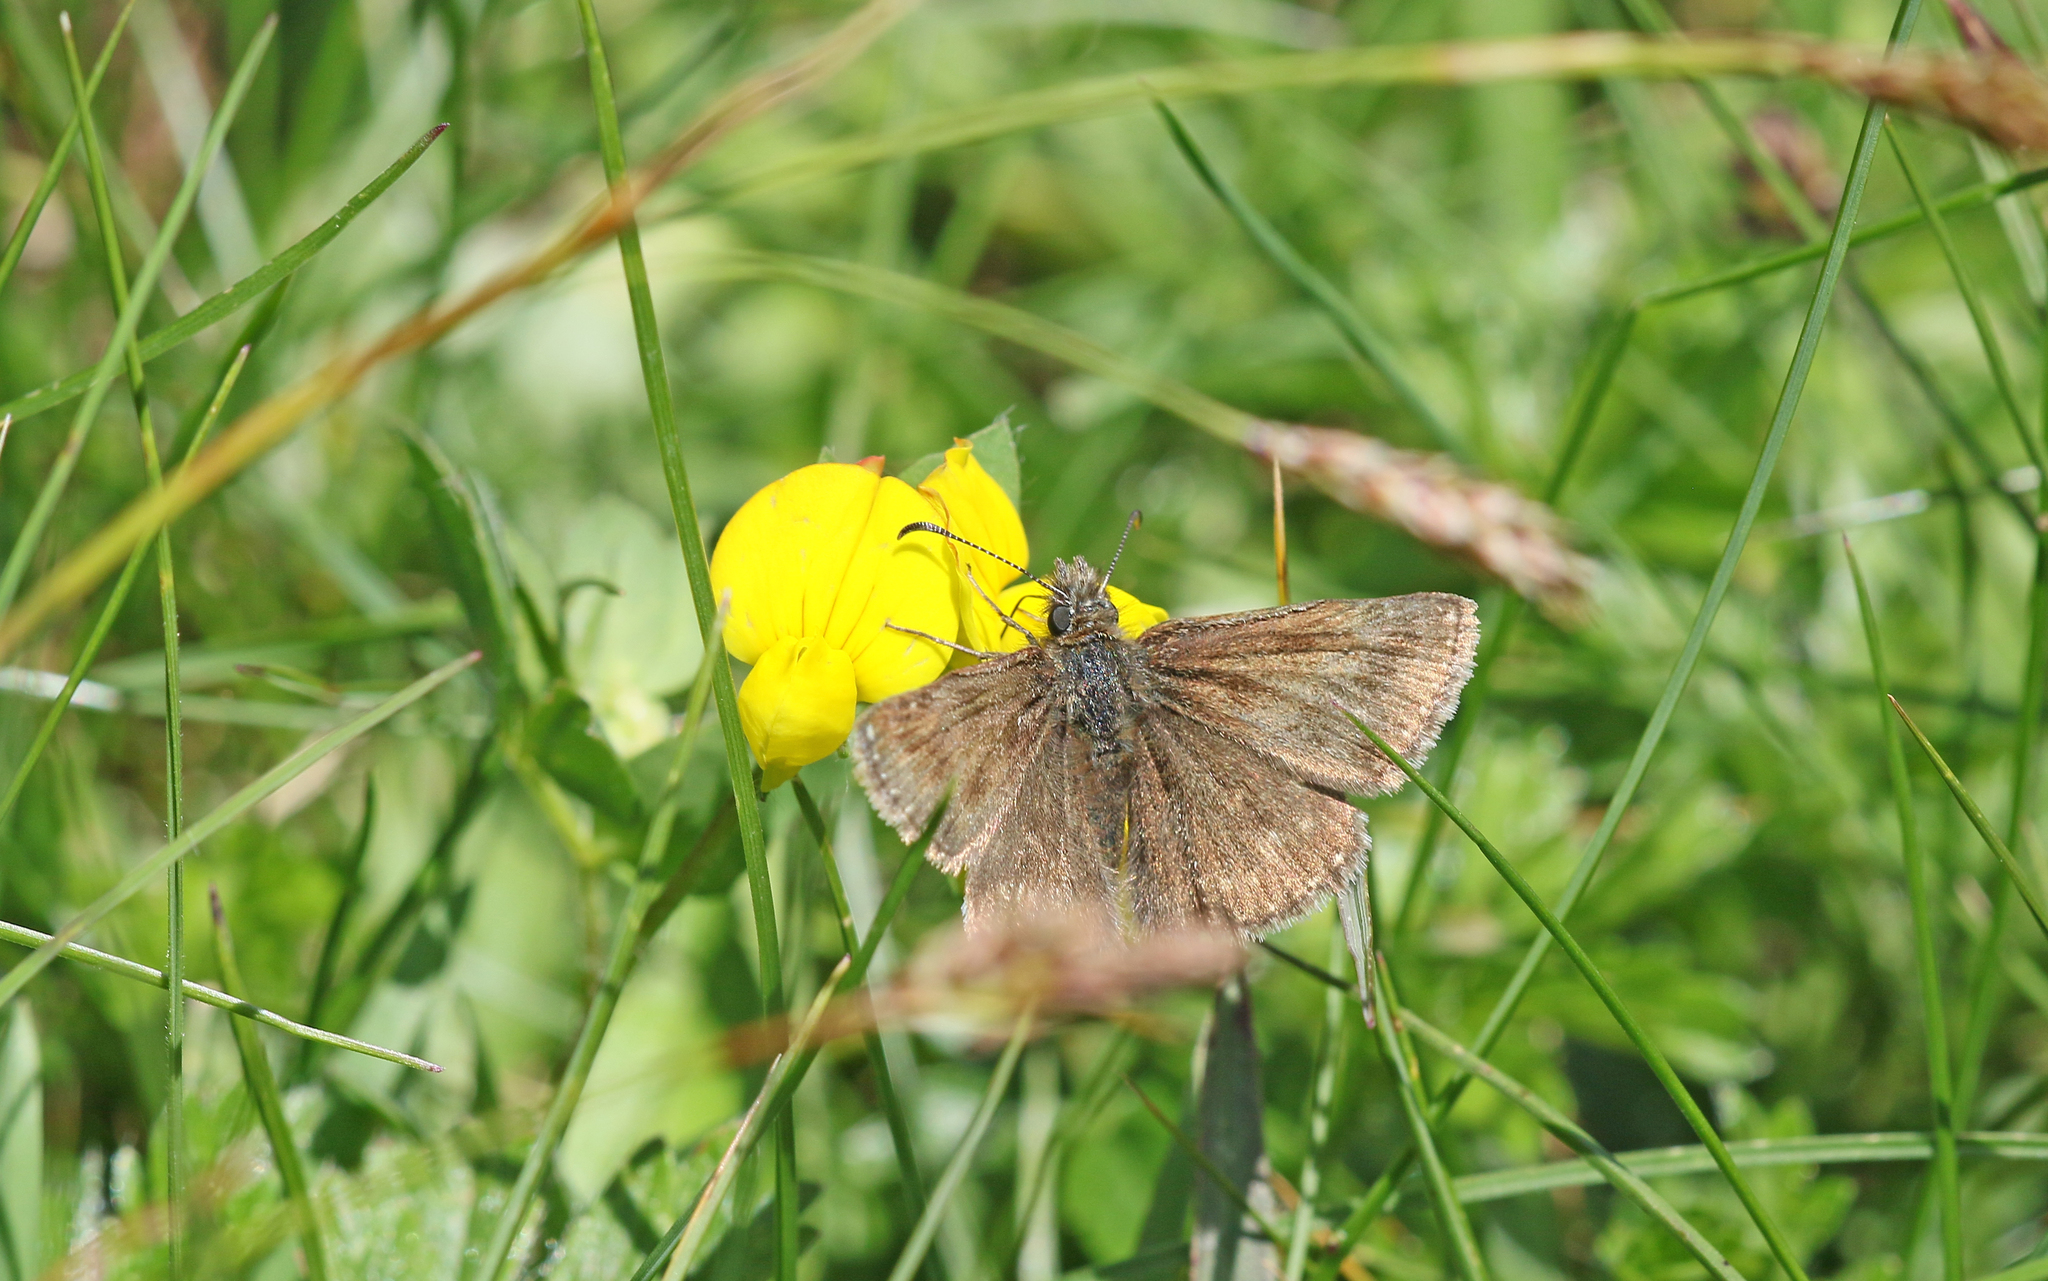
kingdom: Animalia
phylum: Arthropoda
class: Insecta
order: Lepidoptera
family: Hesperiidae
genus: Erynnis
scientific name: Erynnis tages
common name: Dingy skipper
